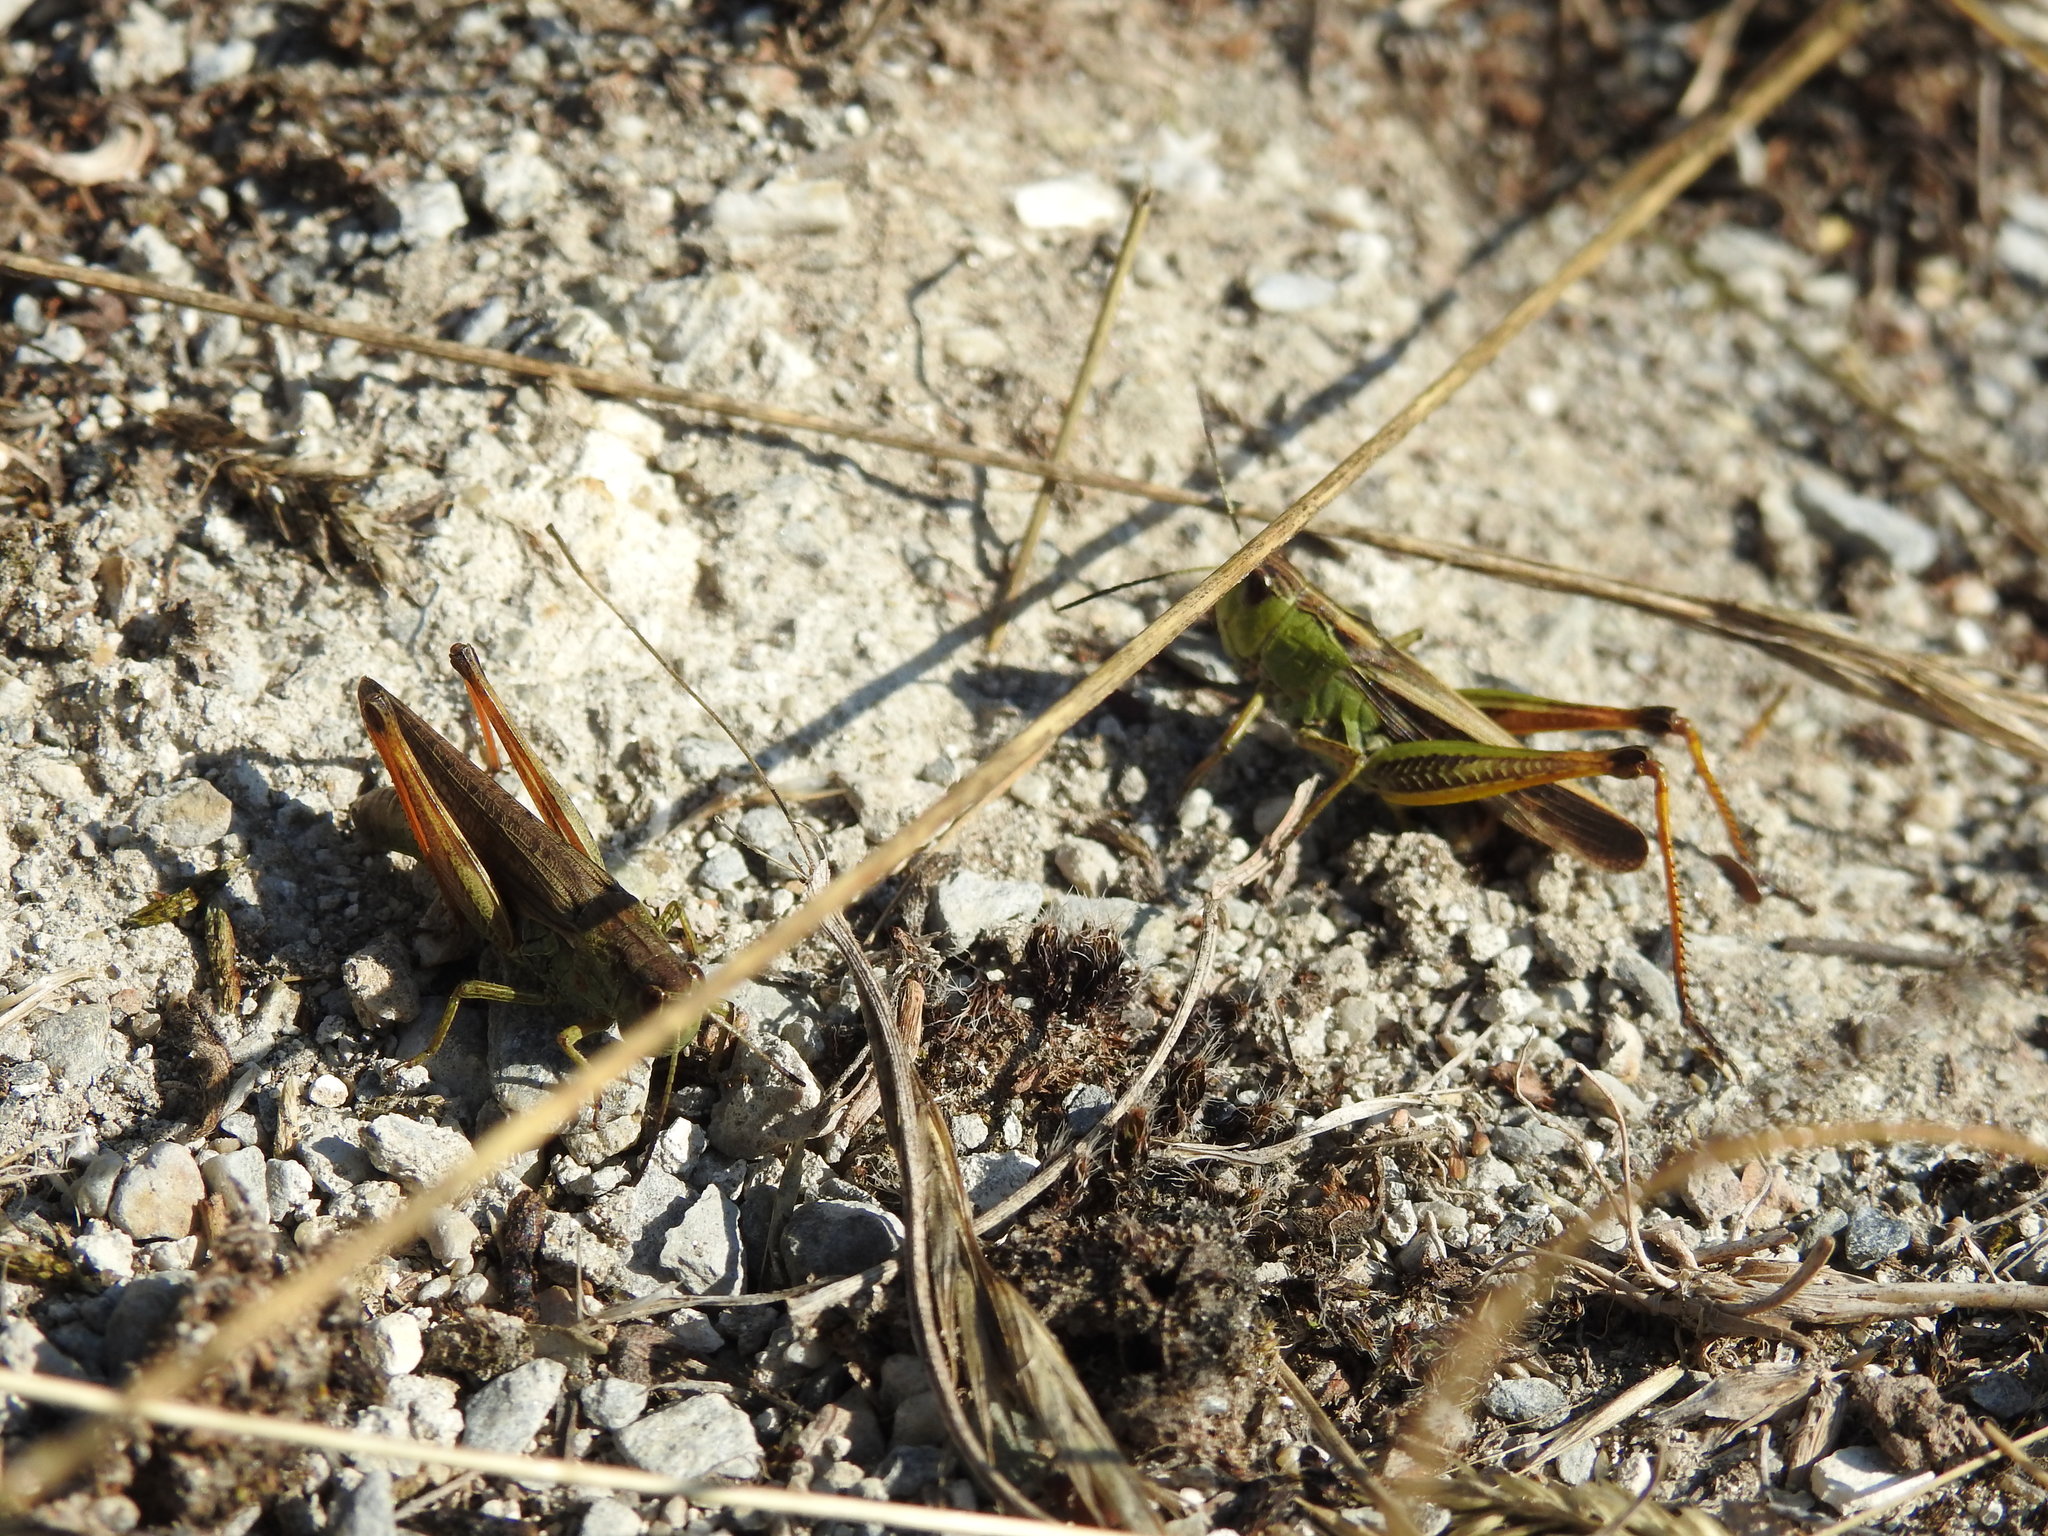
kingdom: Animalia
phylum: Arthropoda
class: Insecta
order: Orthoptera
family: Acrididae
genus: Stauroderus
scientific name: Stauroderus scalaris
